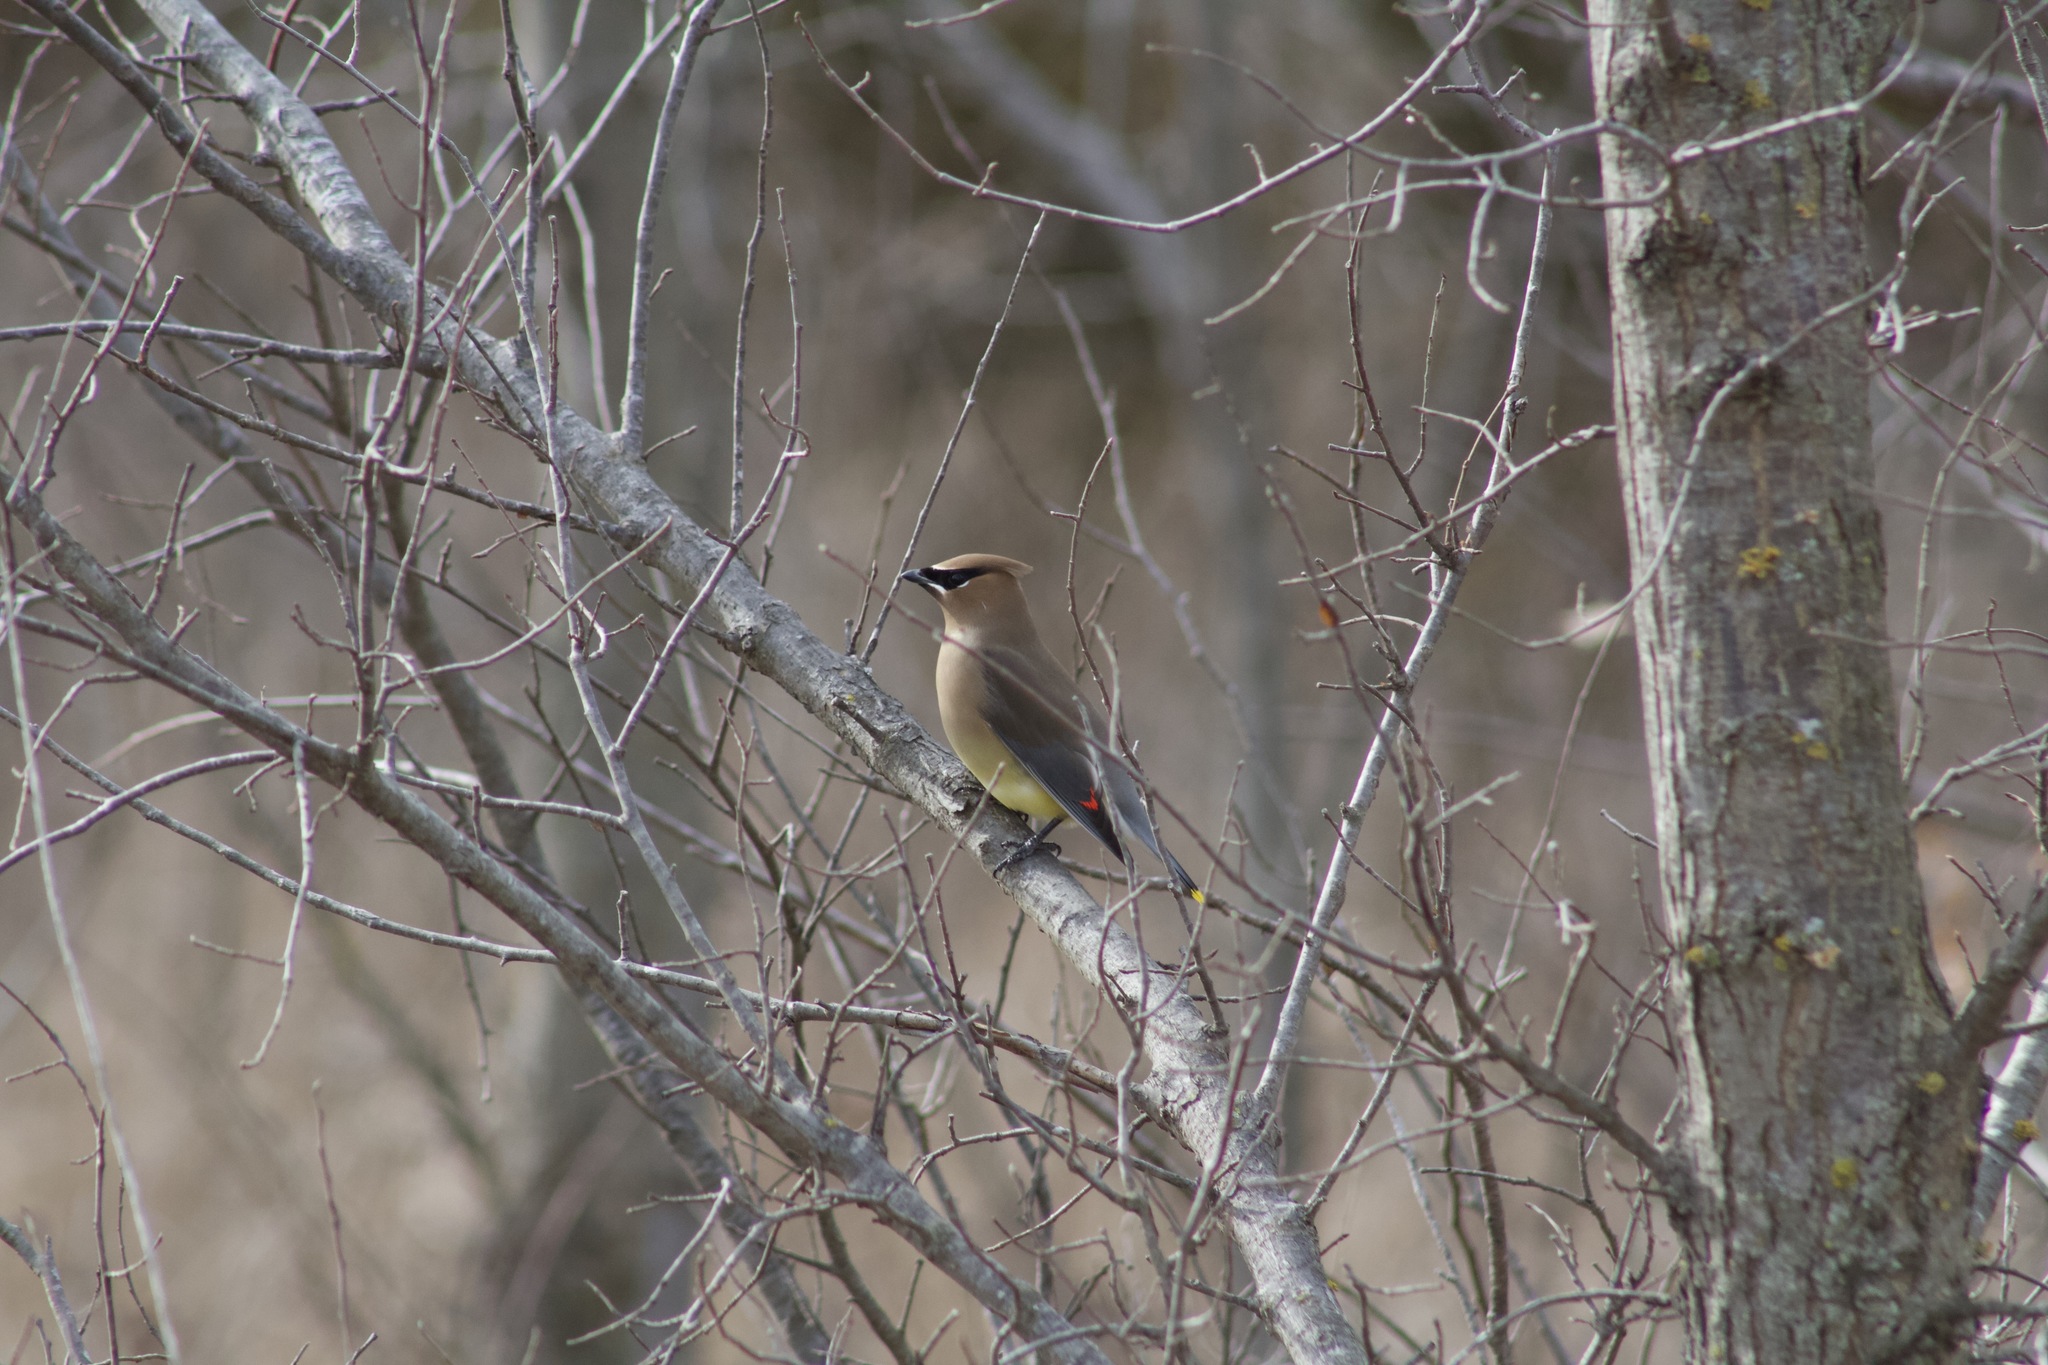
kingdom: Animalia
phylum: Chordata
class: Aves
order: Passeriformes
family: Bombycillidae
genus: Bombycilla
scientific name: Bombycilla cedrorum
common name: Cedar waxwing
